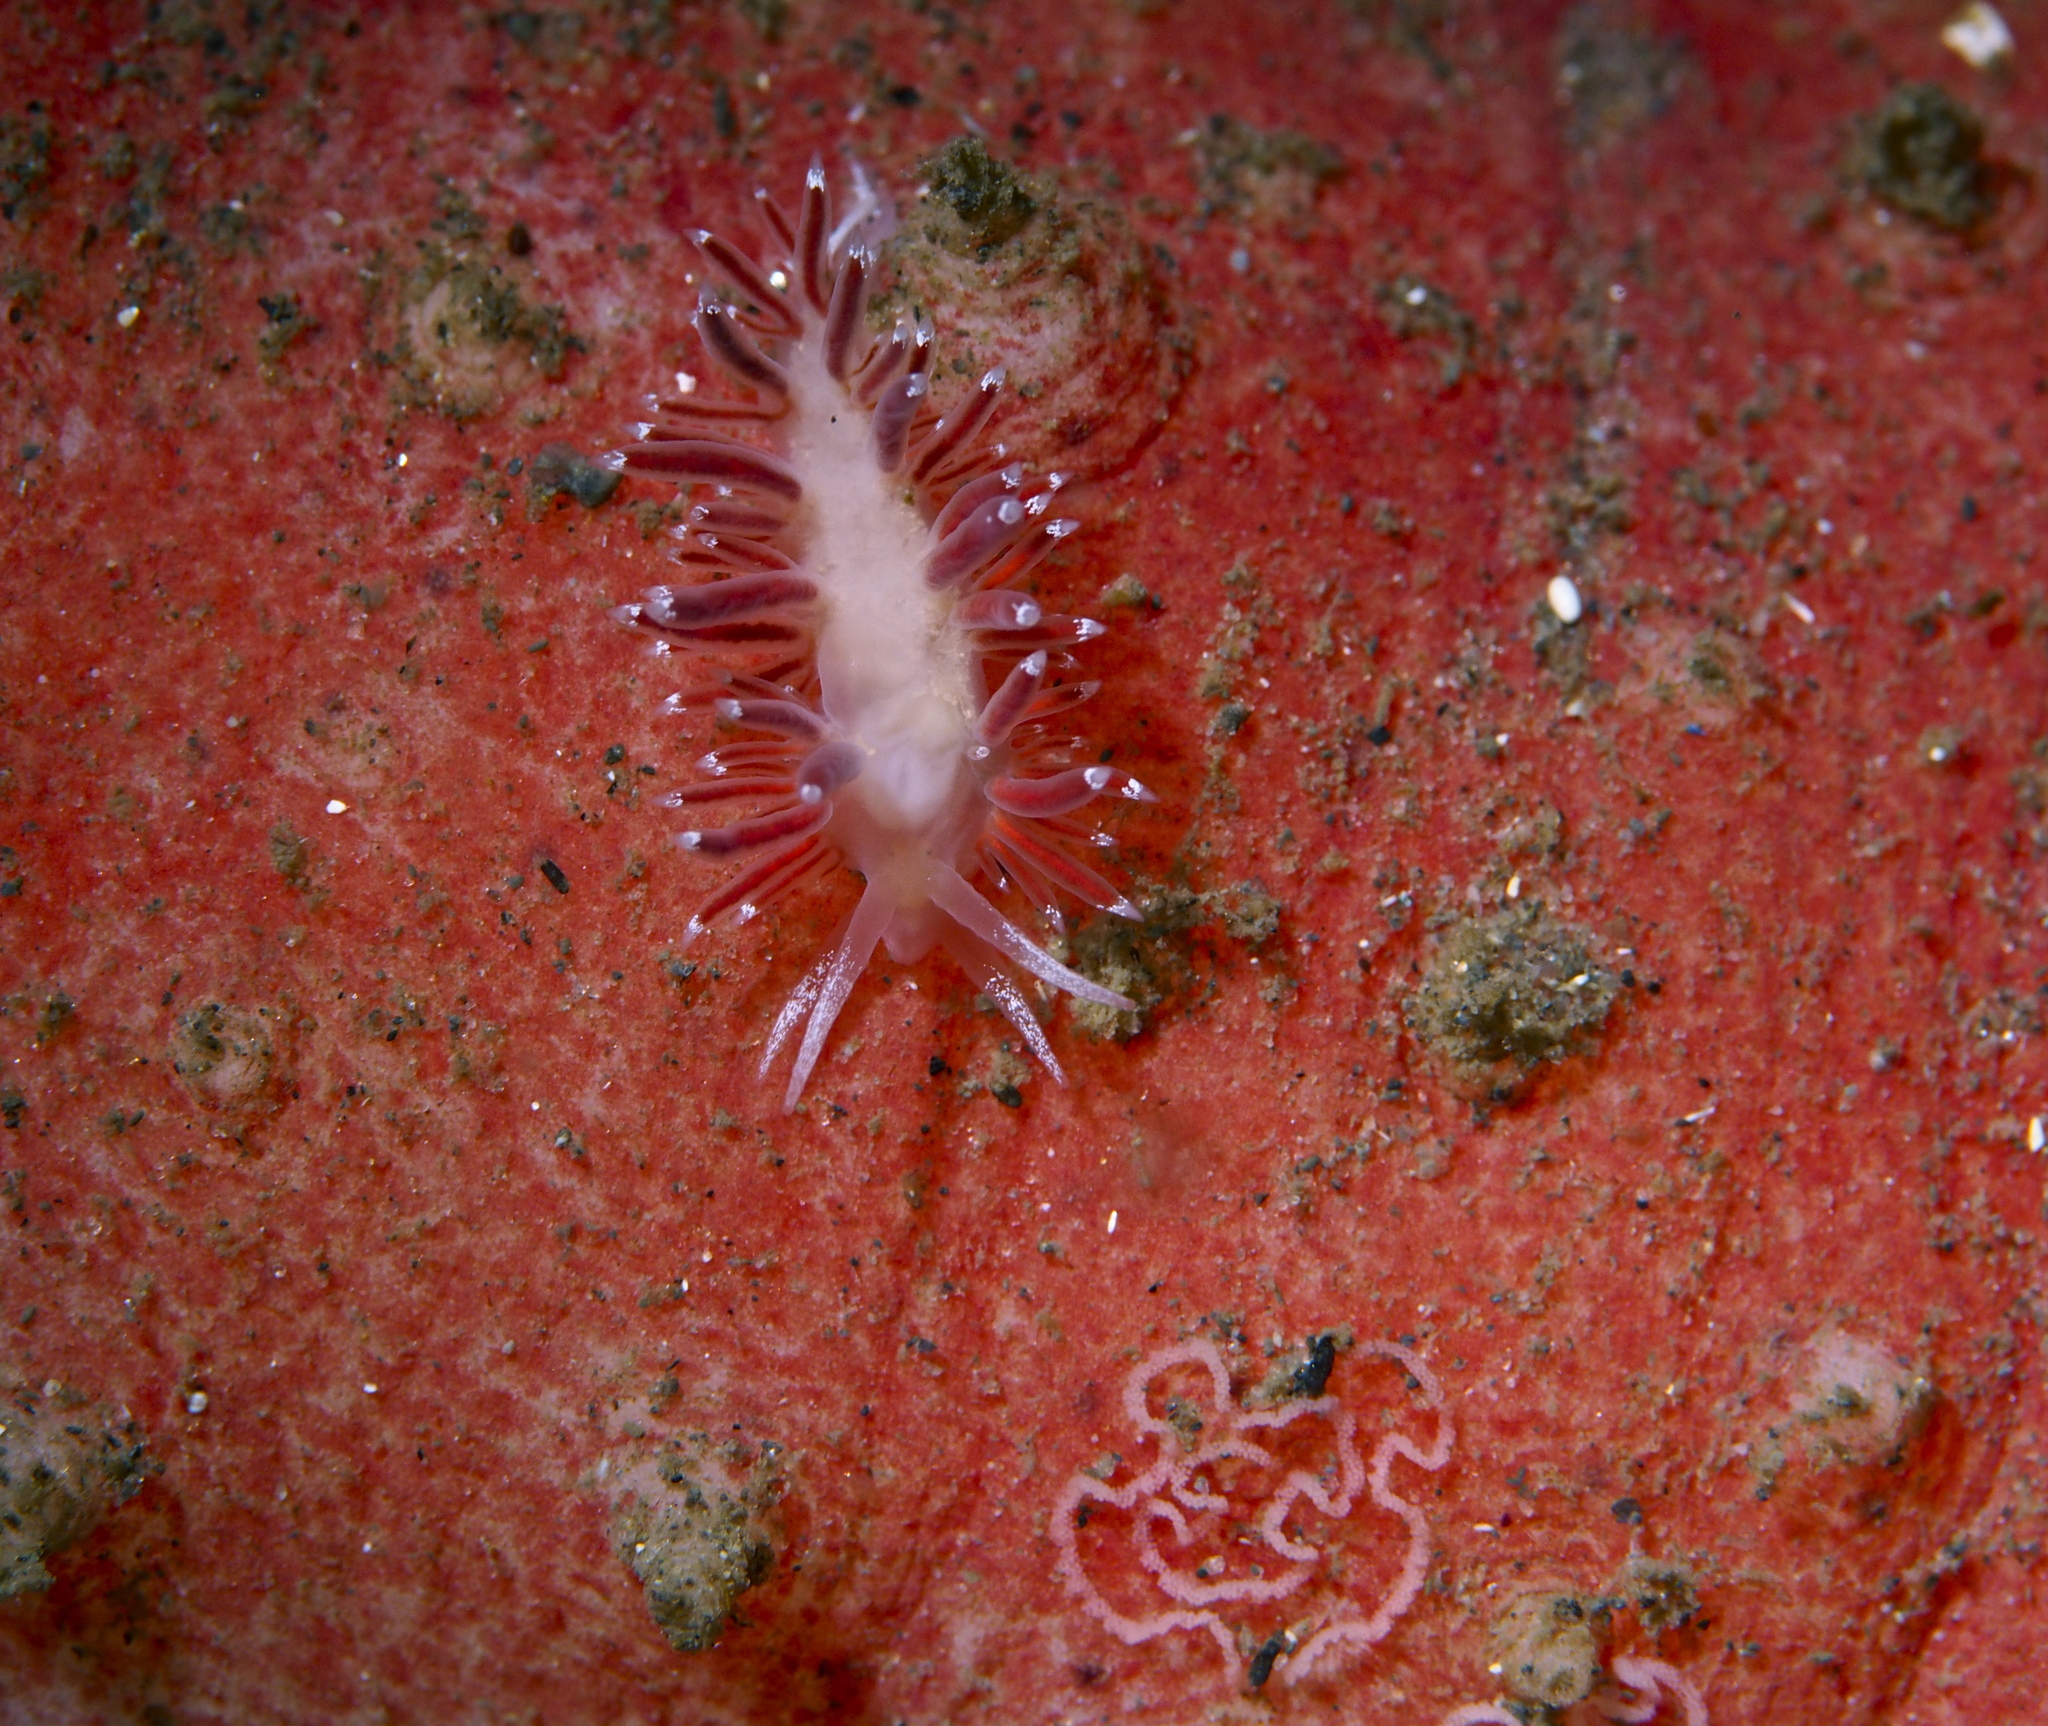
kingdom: Animalia
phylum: Mollusca
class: Gastropoda
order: Nudibranchia
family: Coryphellidae
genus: Coryphella
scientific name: Coryphella gracilis
